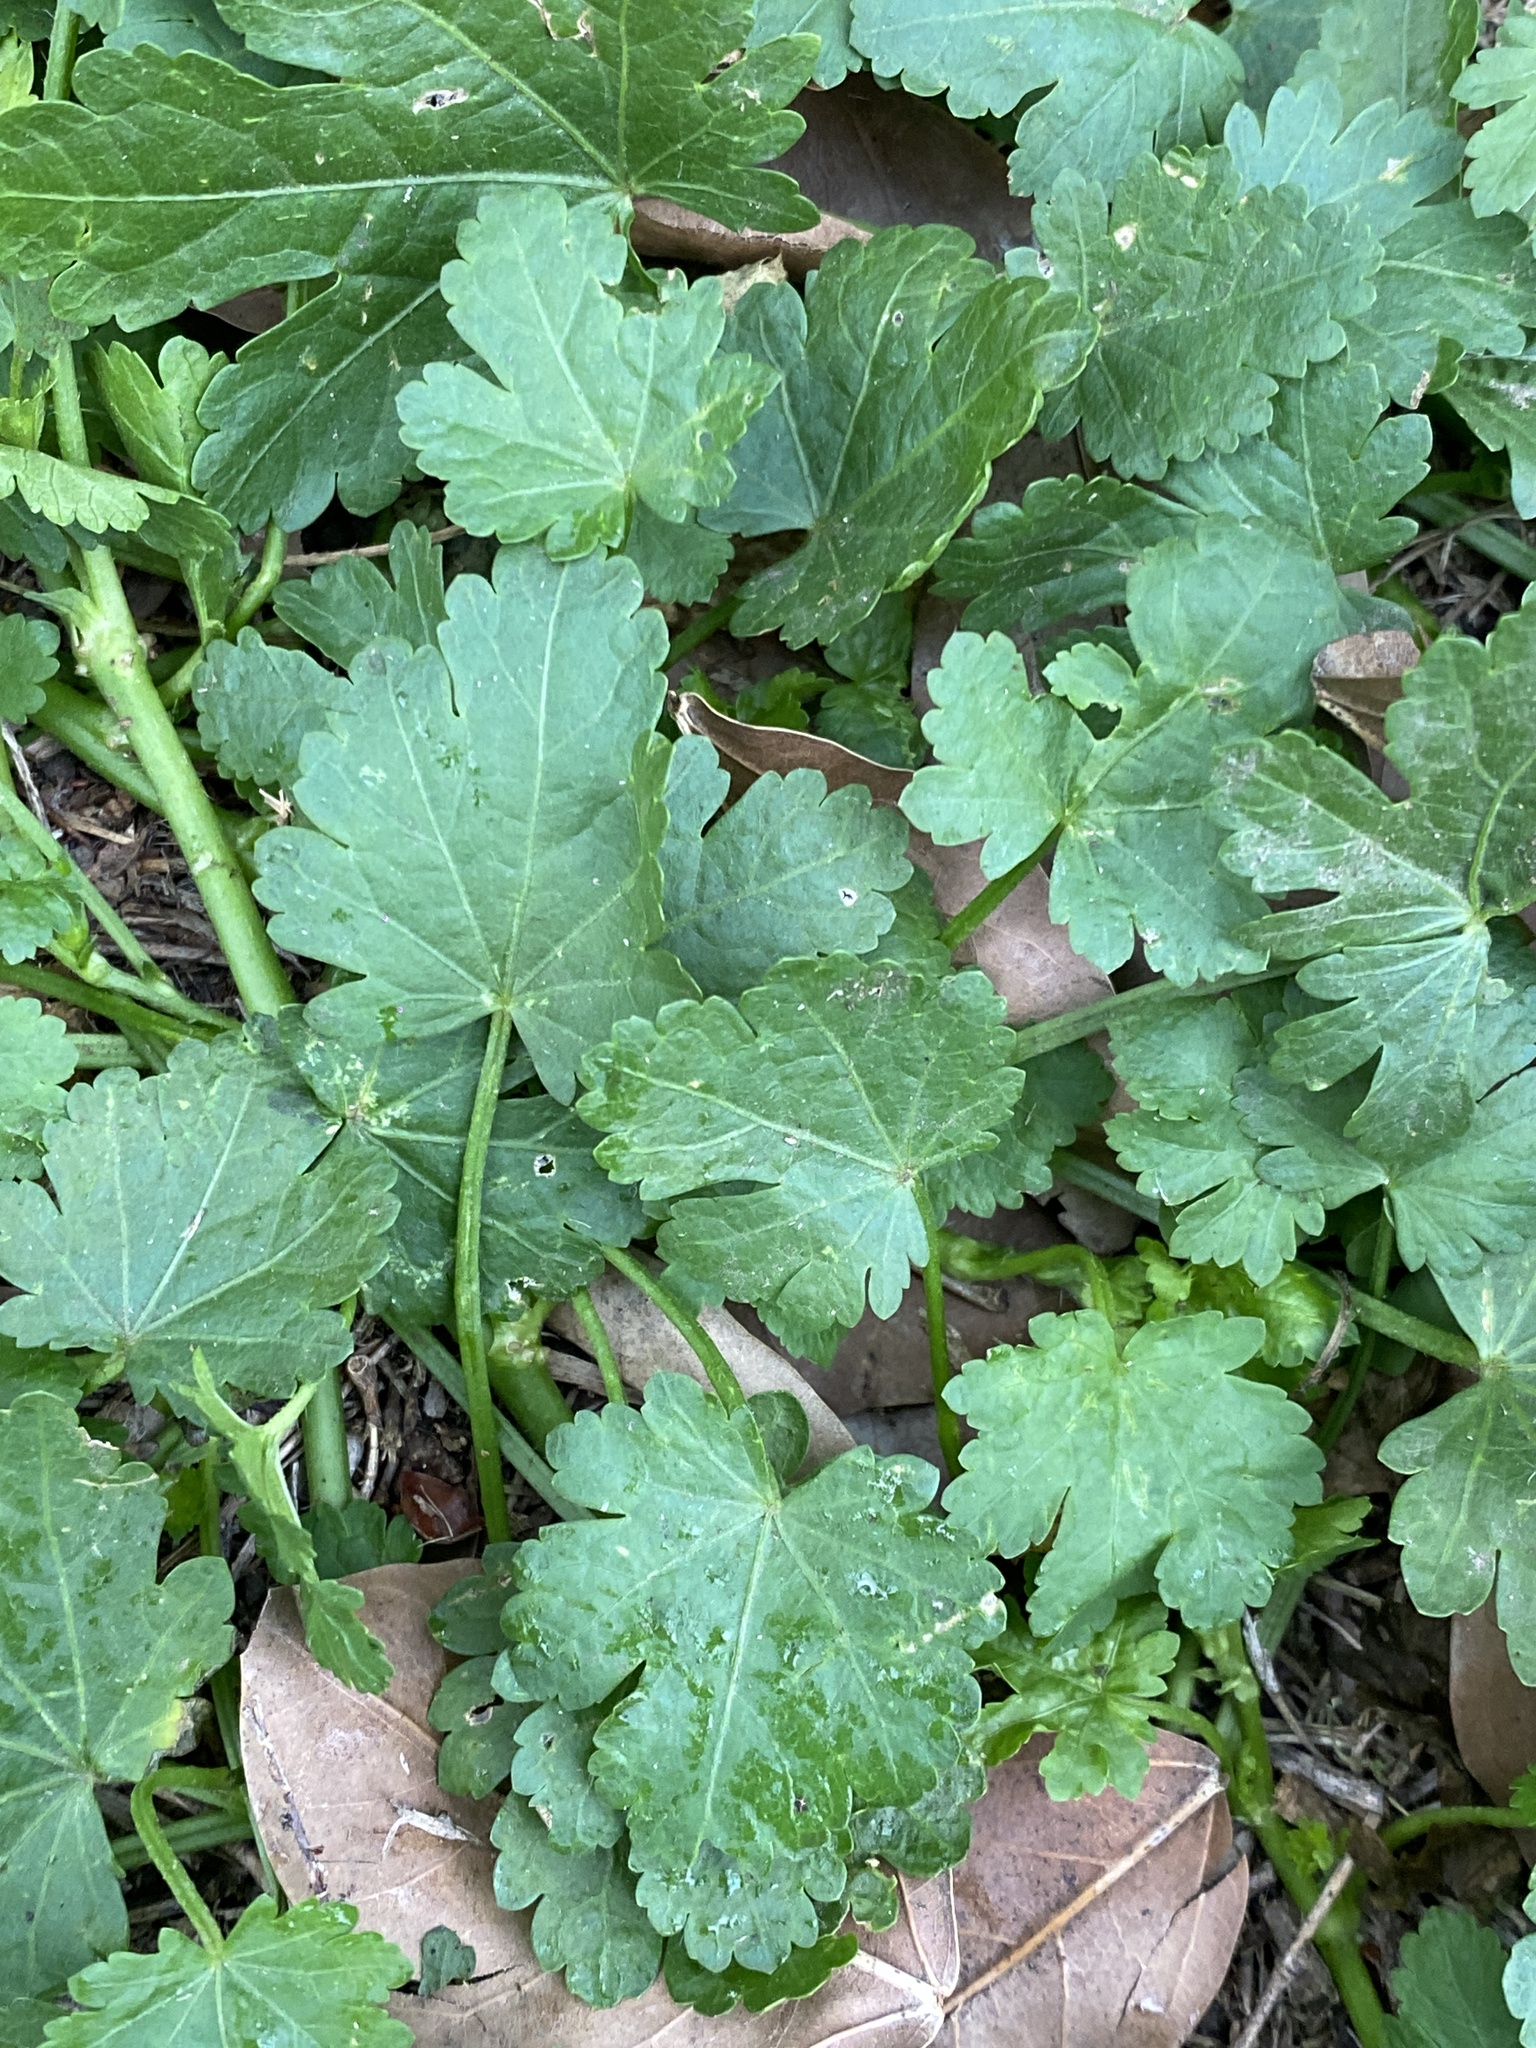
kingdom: Plantae
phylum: Tracheophyta
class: Magnoliopsida
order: Malvales
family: Malvaceae
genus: Modiola
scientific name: Modiola caroliniana
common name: Carolina bristlemallow
